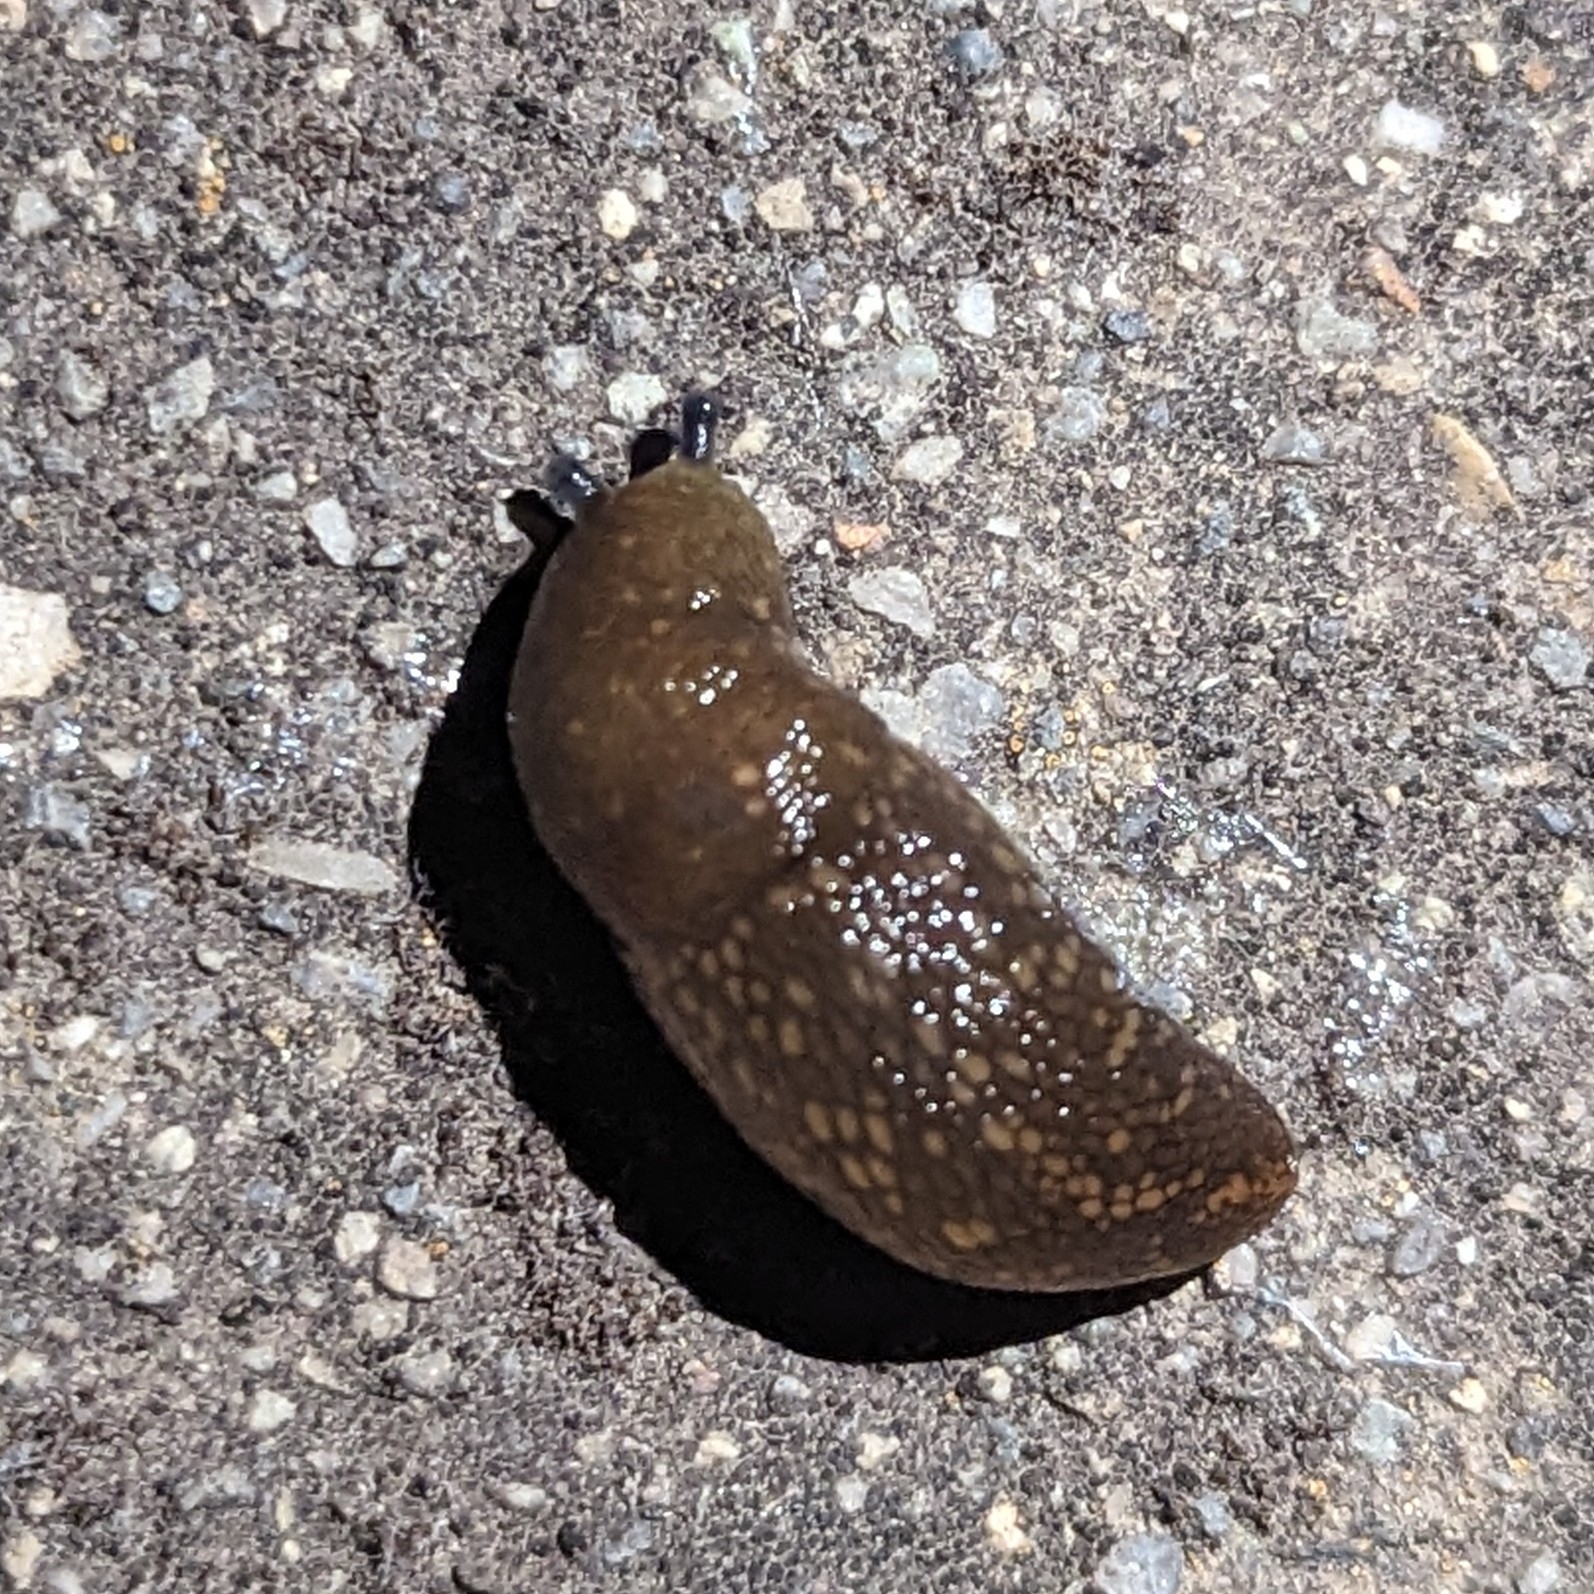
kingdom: Animalia
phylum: Mollusca
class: Gastropoda
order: Stylommatophora
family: Limacidae
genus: Limacus
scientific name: Limacus flavus
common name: Yellow gardenslug
